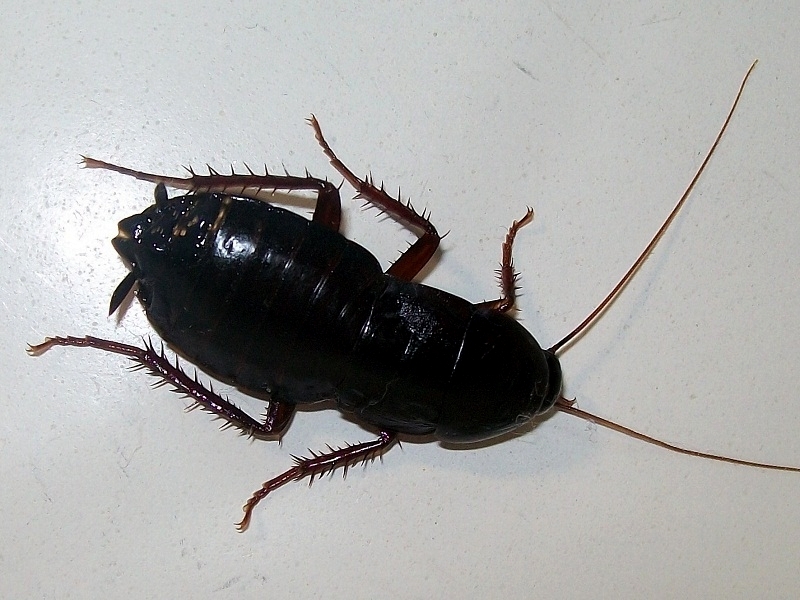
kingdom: Animalia
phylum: Arthropoda
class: Insecta
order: Blattodea
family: Blattidae
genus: Blatta
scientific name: Blatta orientalis
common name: Oriental cockroach
